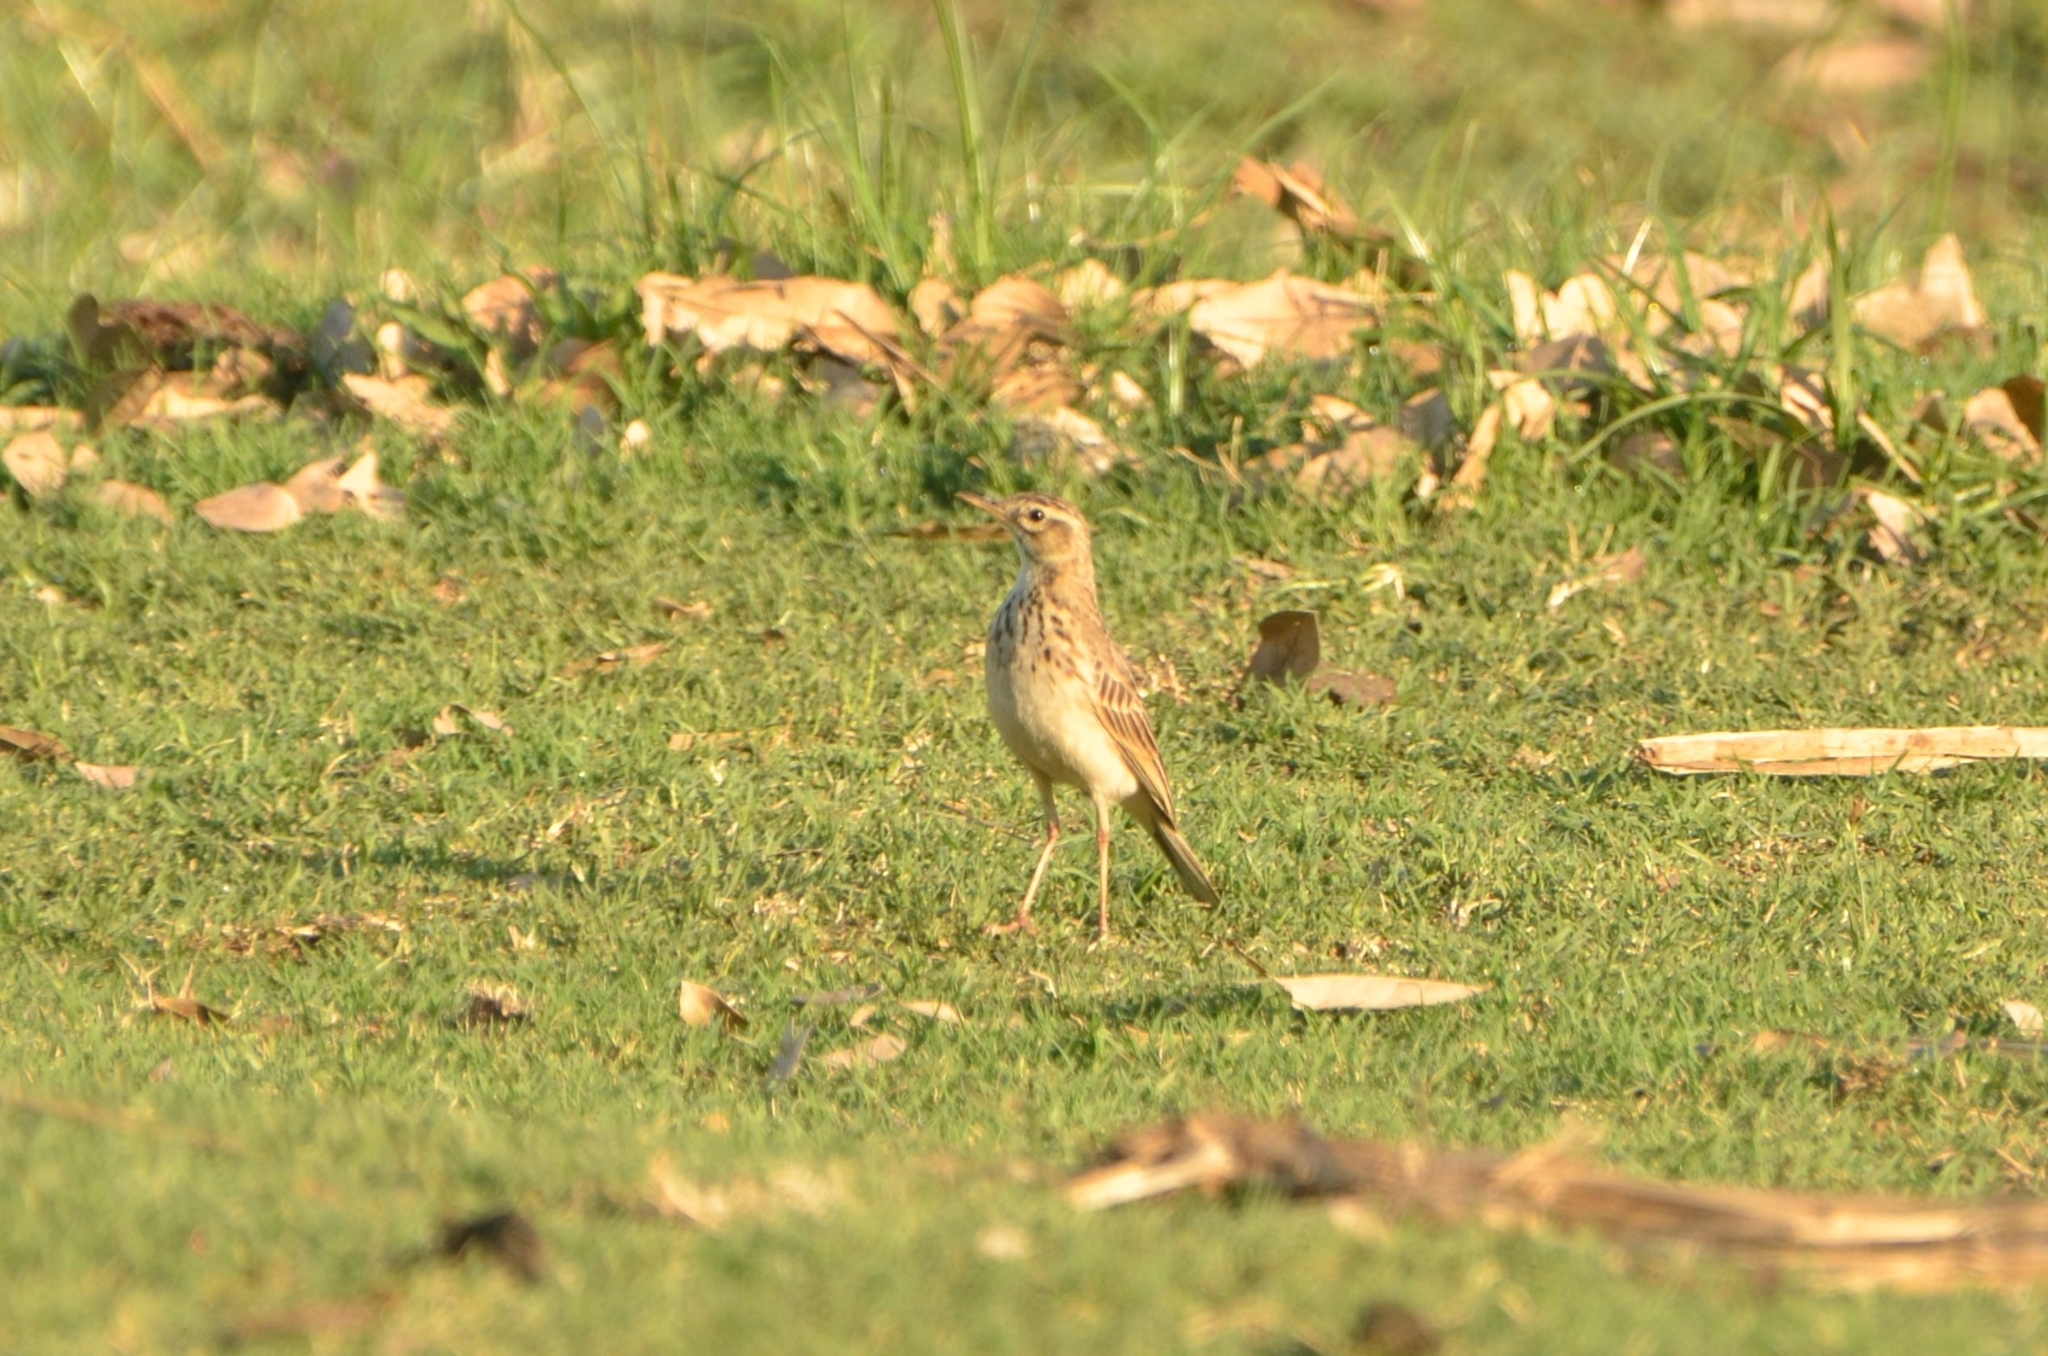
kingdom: Animalia
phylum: Chordata
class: Aves
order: Passeriformes
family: Motacillidae
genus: Anthus
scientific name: Anthus cinnamomeus
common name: African pipit
